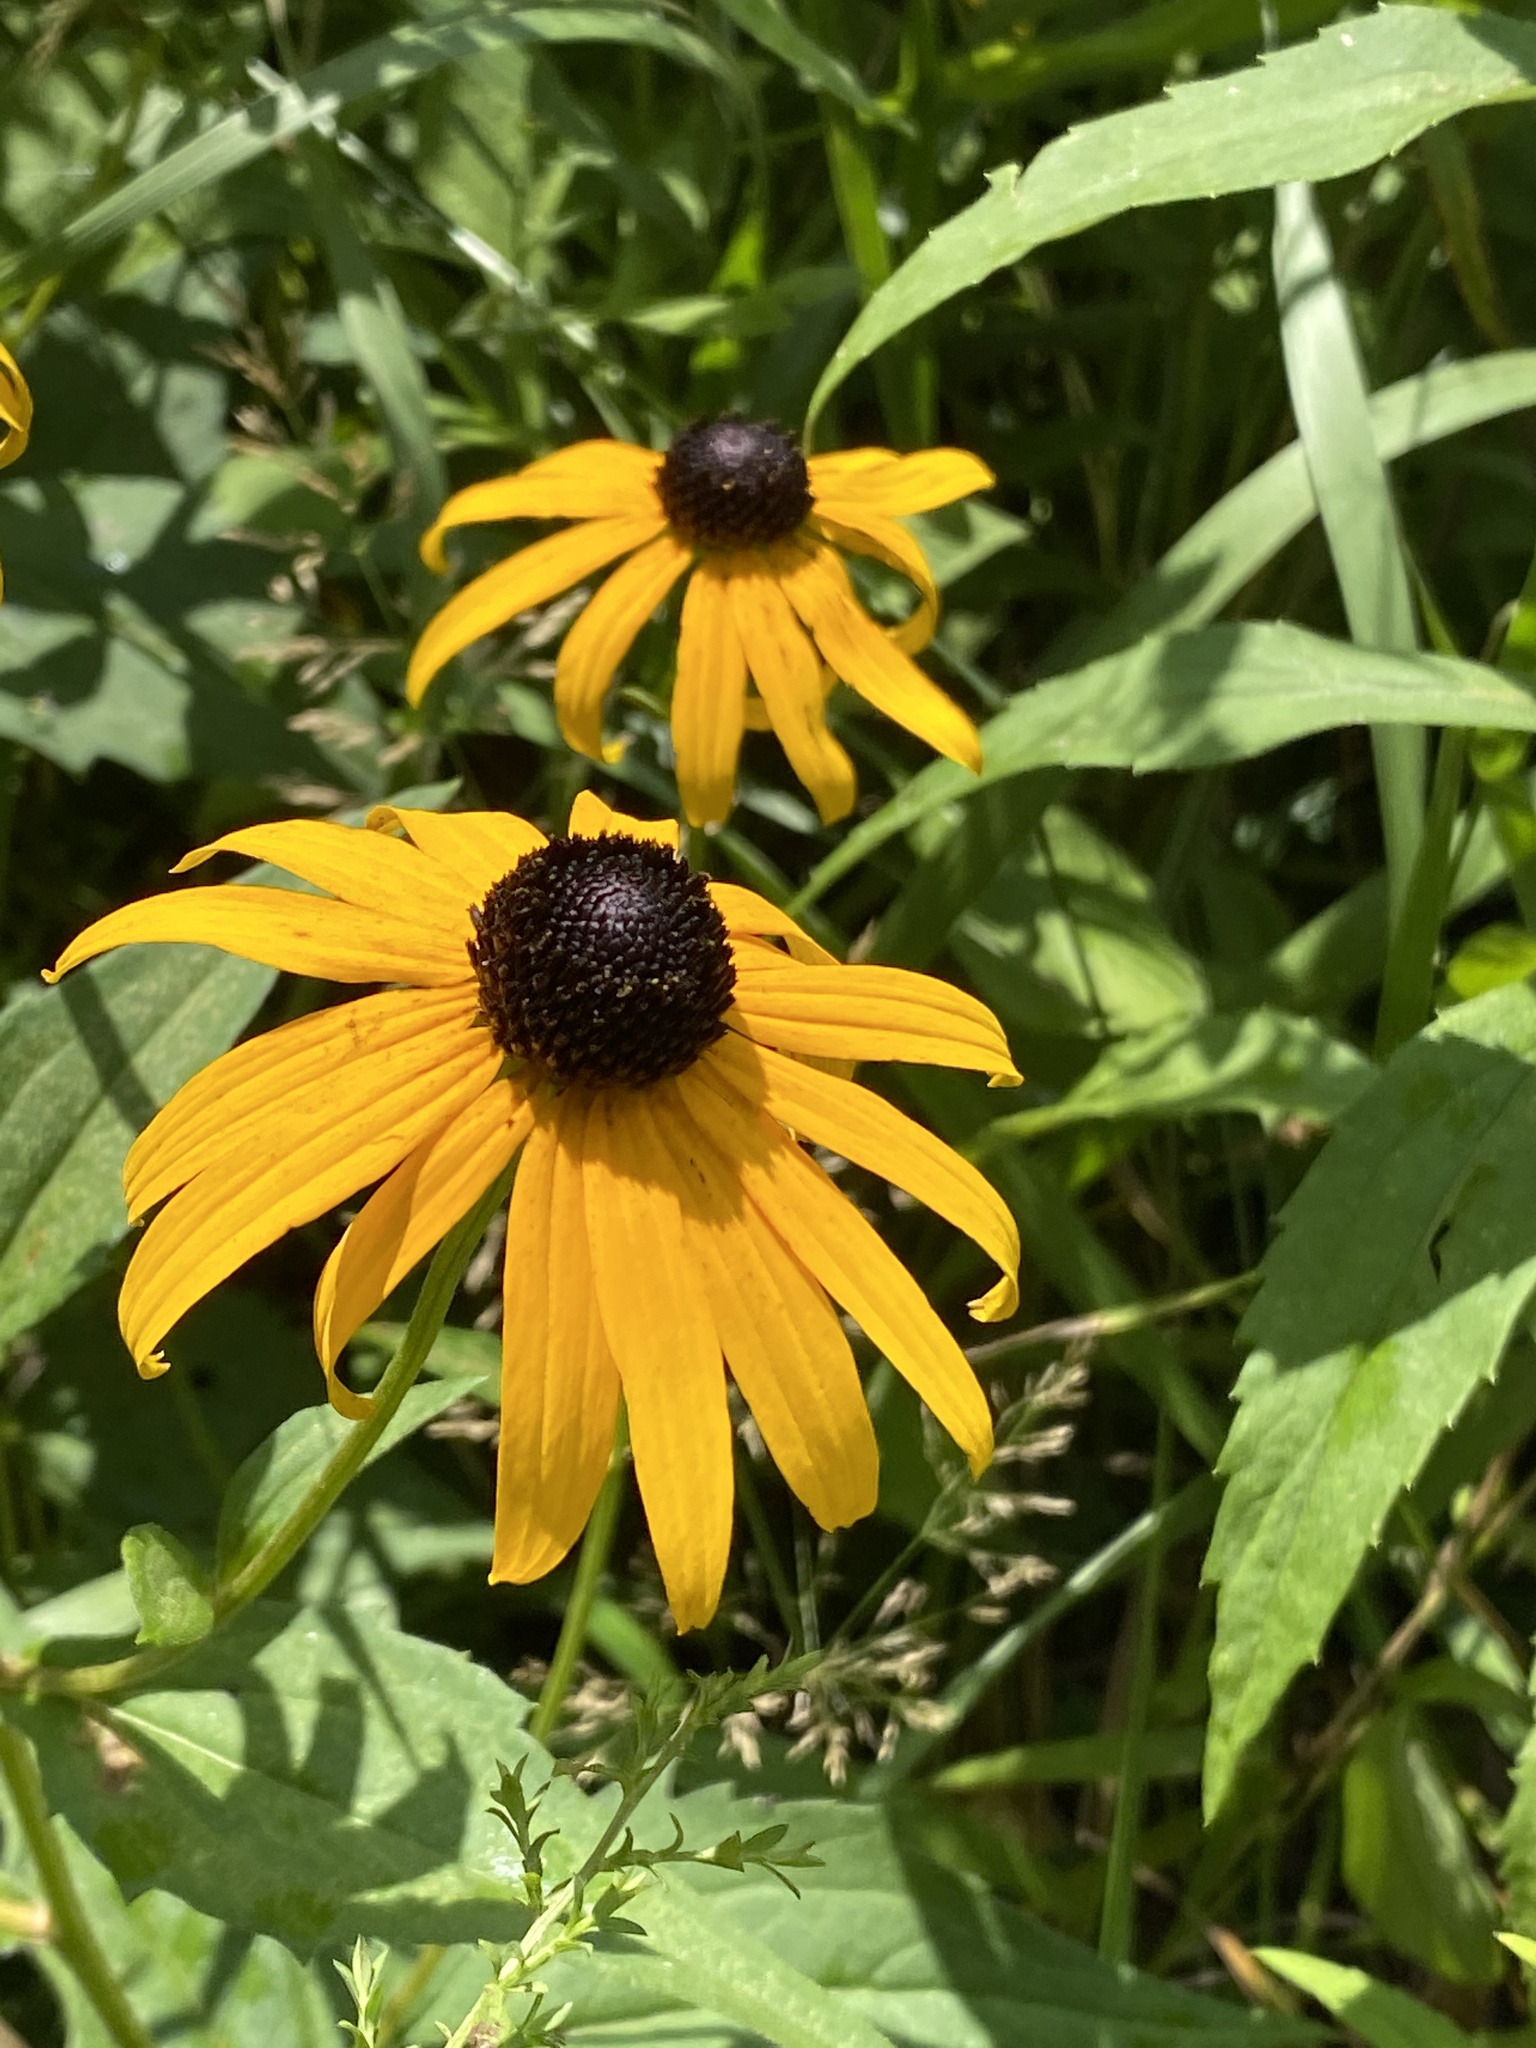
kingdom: Plantae
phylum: Tracheophyta
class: Magnoliopsida
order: Asterales
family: Asteraceae
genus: Rudbeckia
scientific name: Rudbeckia hirta
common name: Black-eyed-susan
